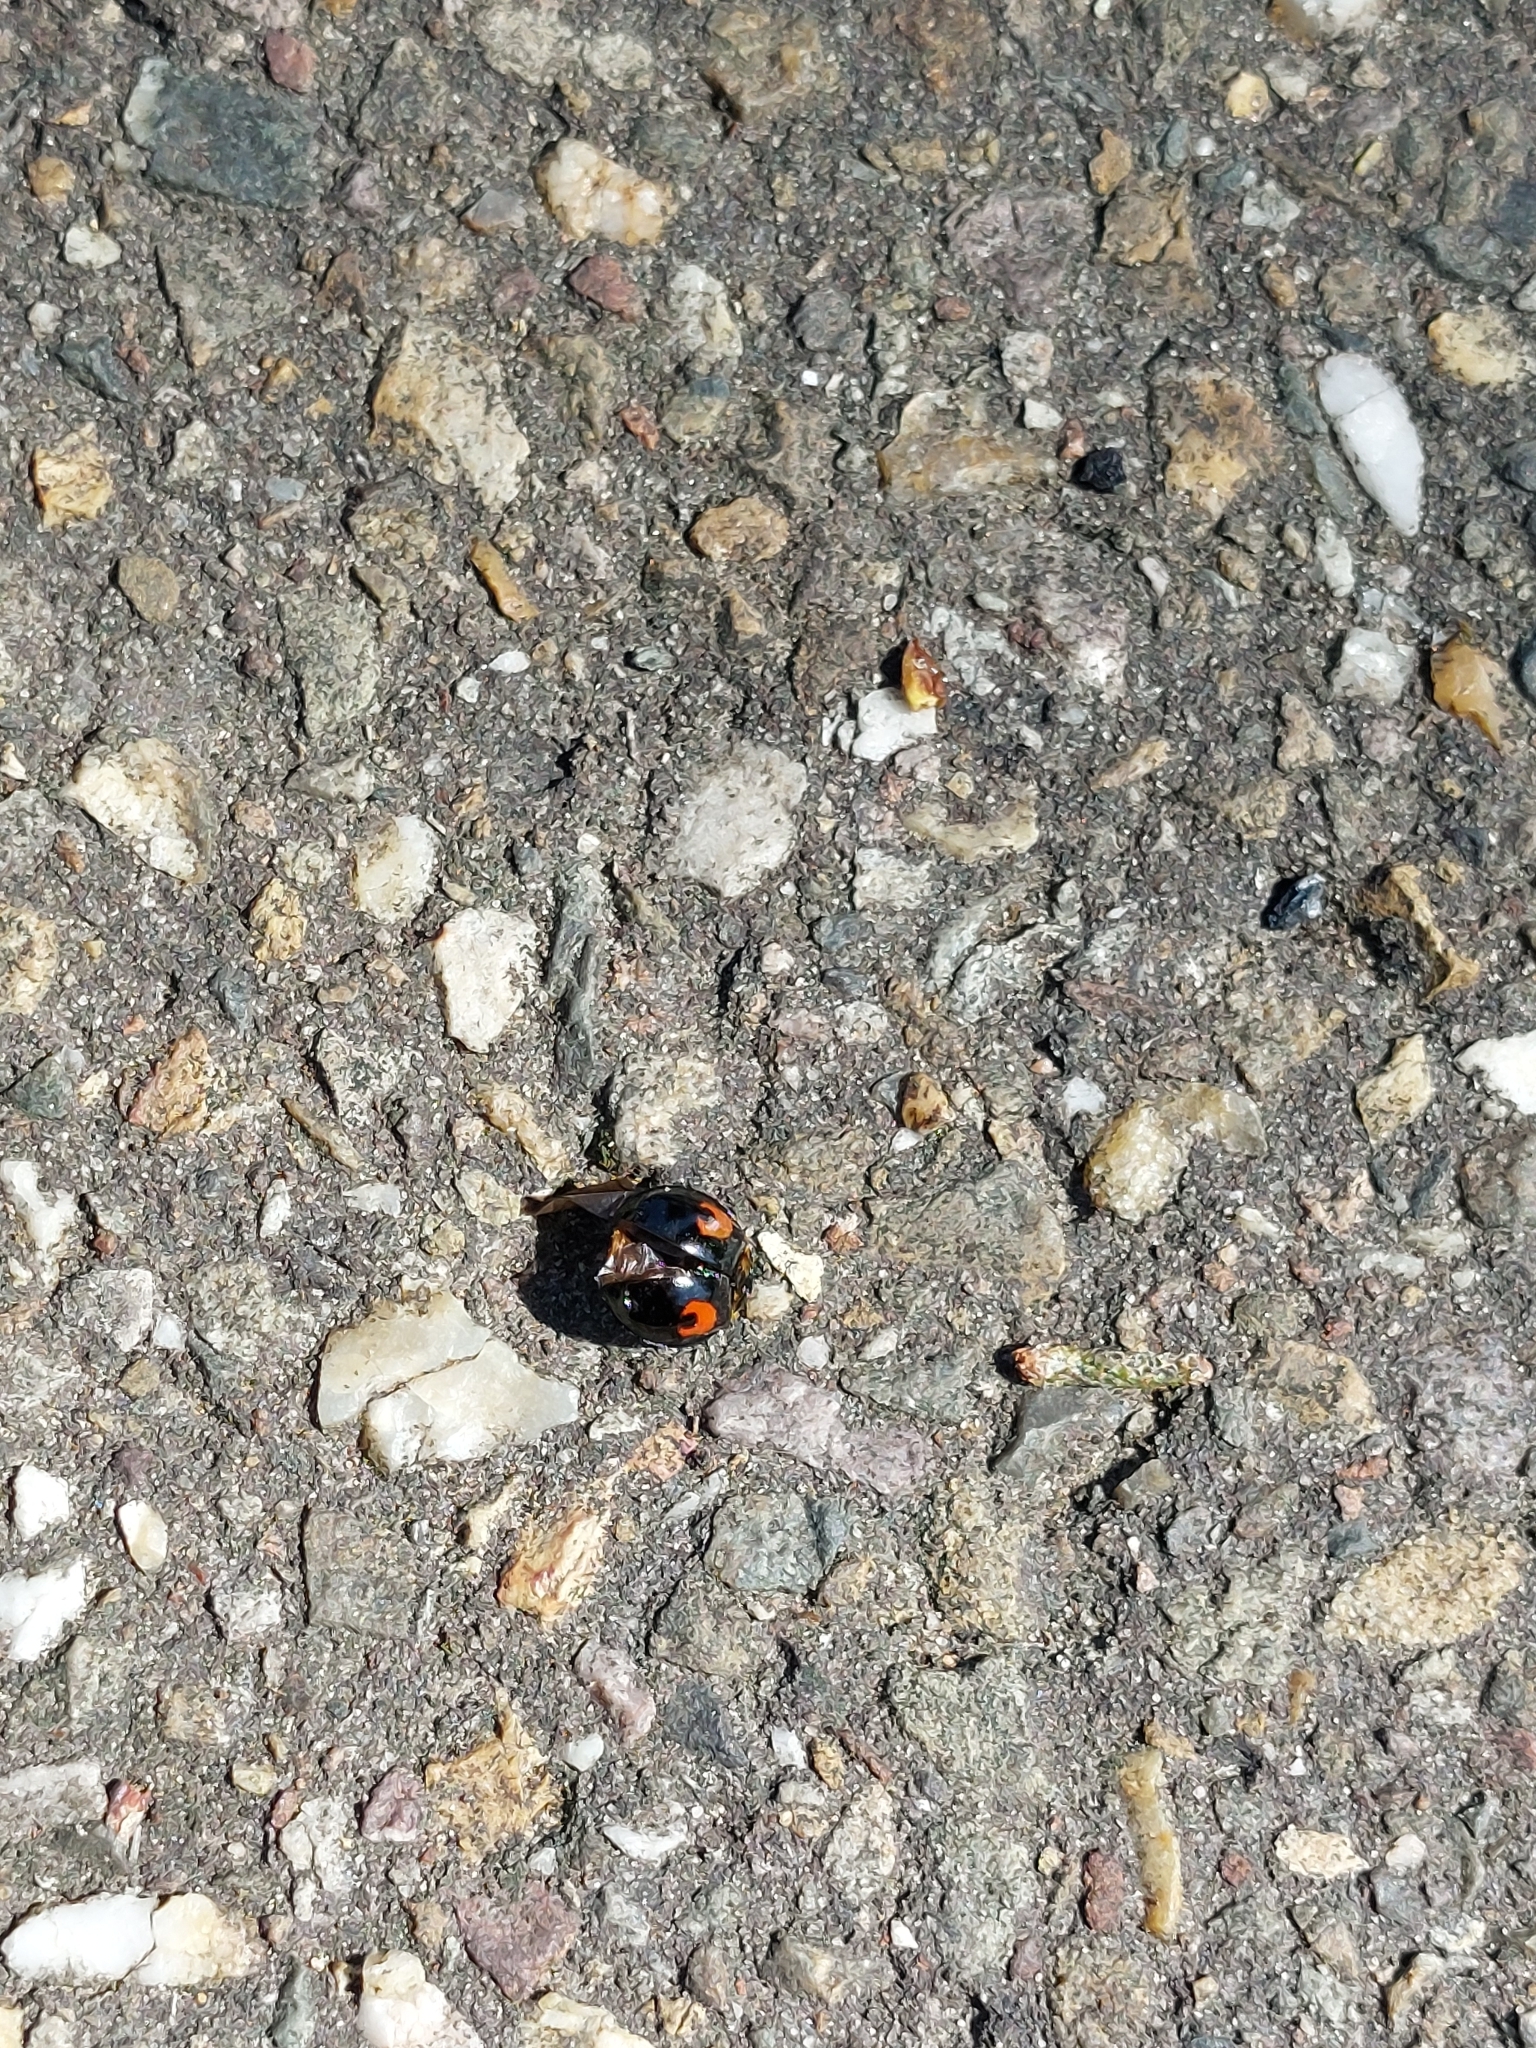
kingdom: Animalia
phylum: Arthropoda
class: Insecta
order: Coleoptera
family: Coccinellidae
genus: Harmonia
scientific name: Harmonia axyridis
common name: Harlequin ladybird
